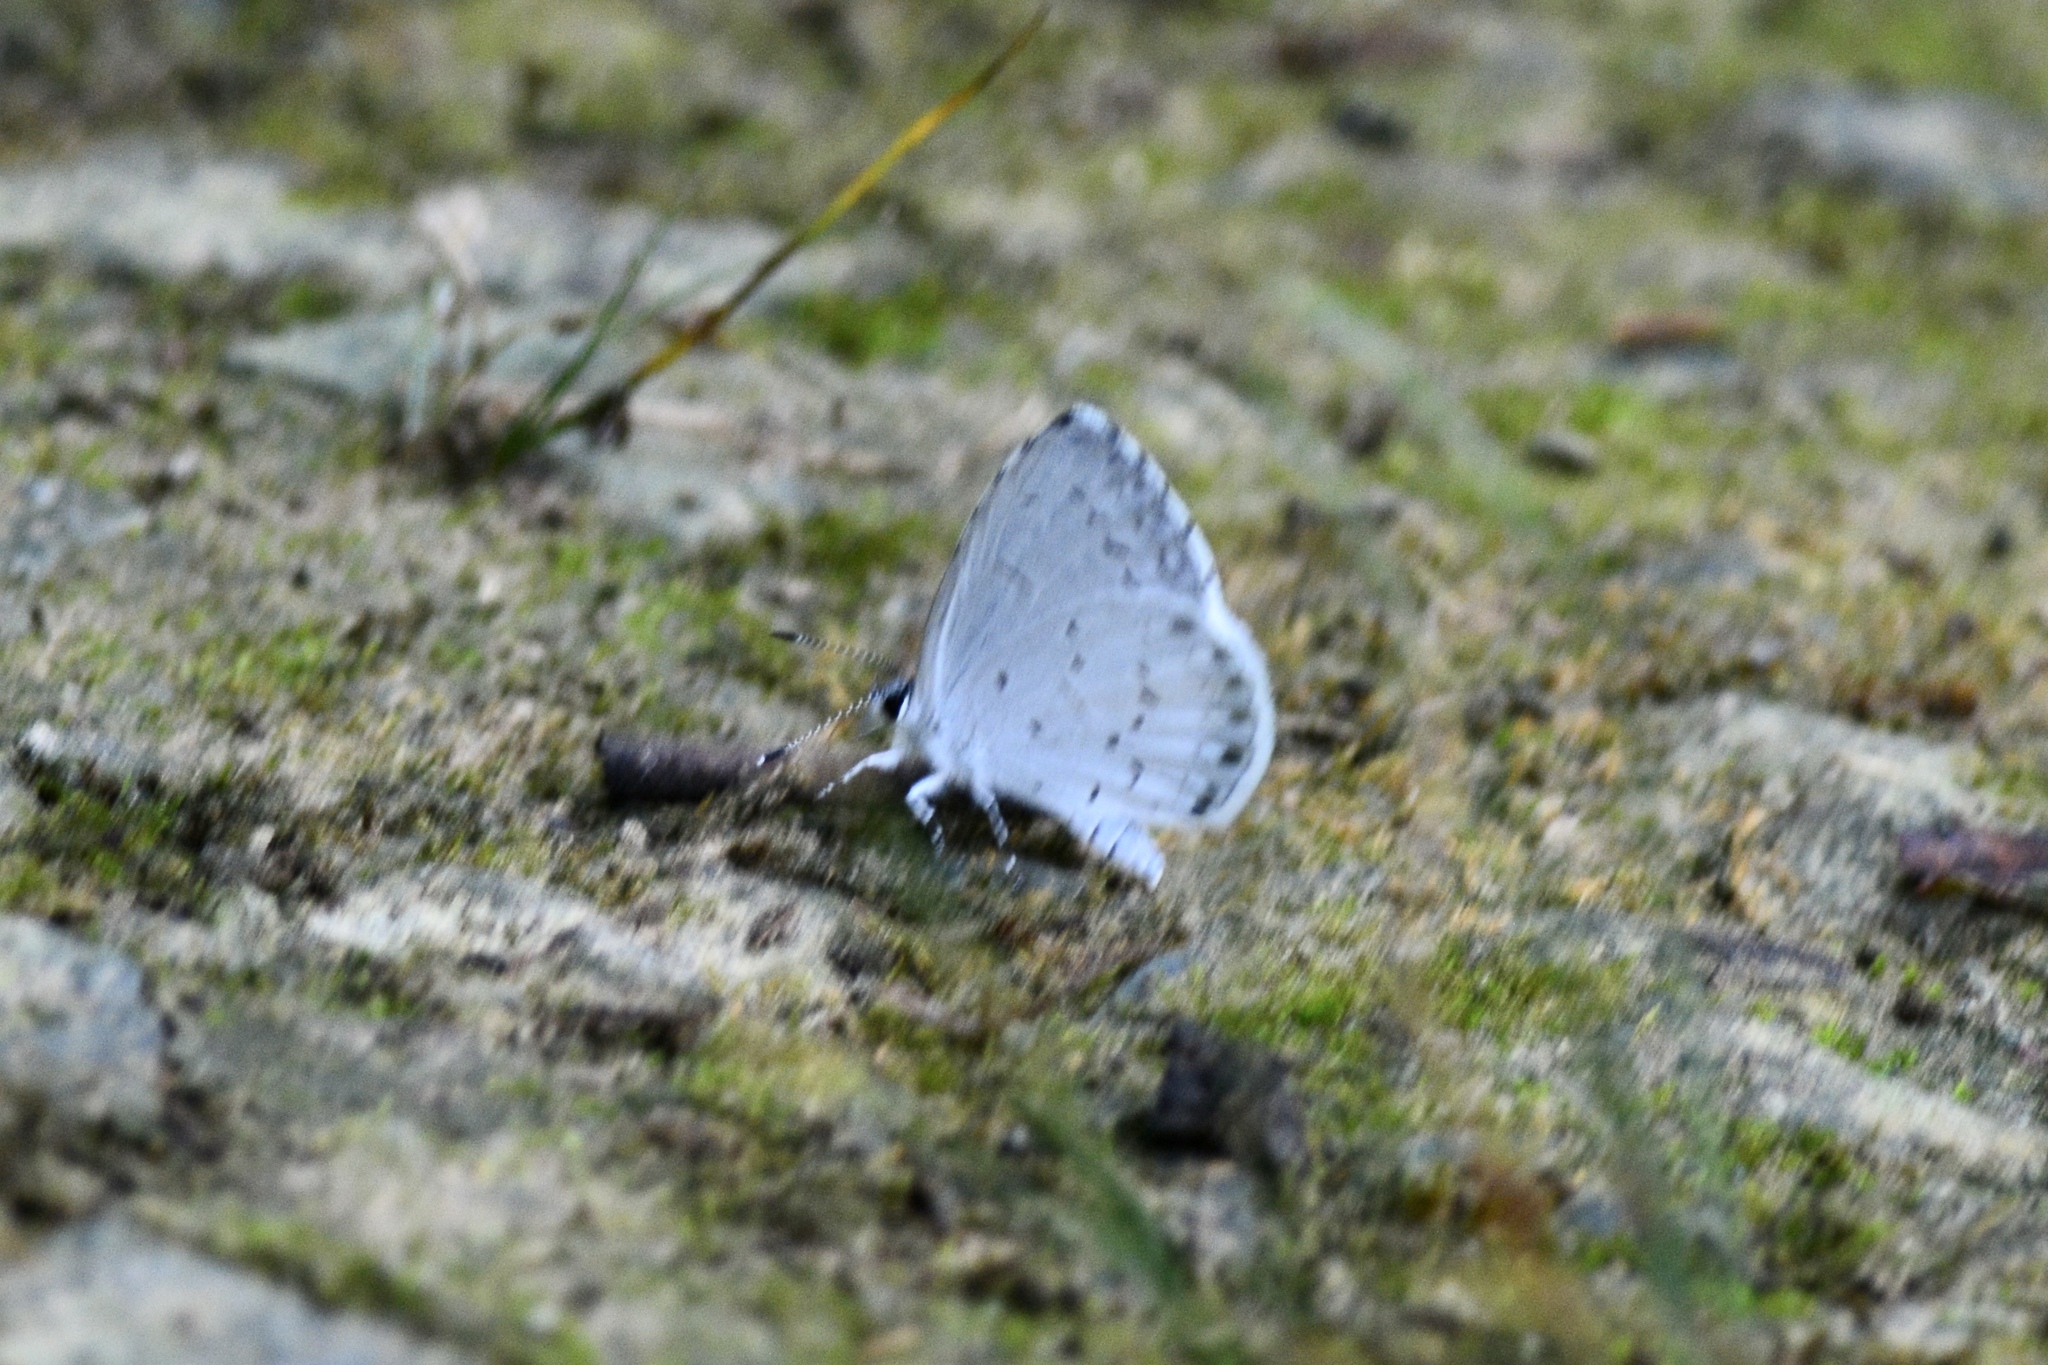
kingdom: Animalia
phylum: Arthropoda
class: Insecta
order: Lepidoptera
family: Lycaenidae
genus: Cyaniris
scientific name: Cyaniris neglecta
